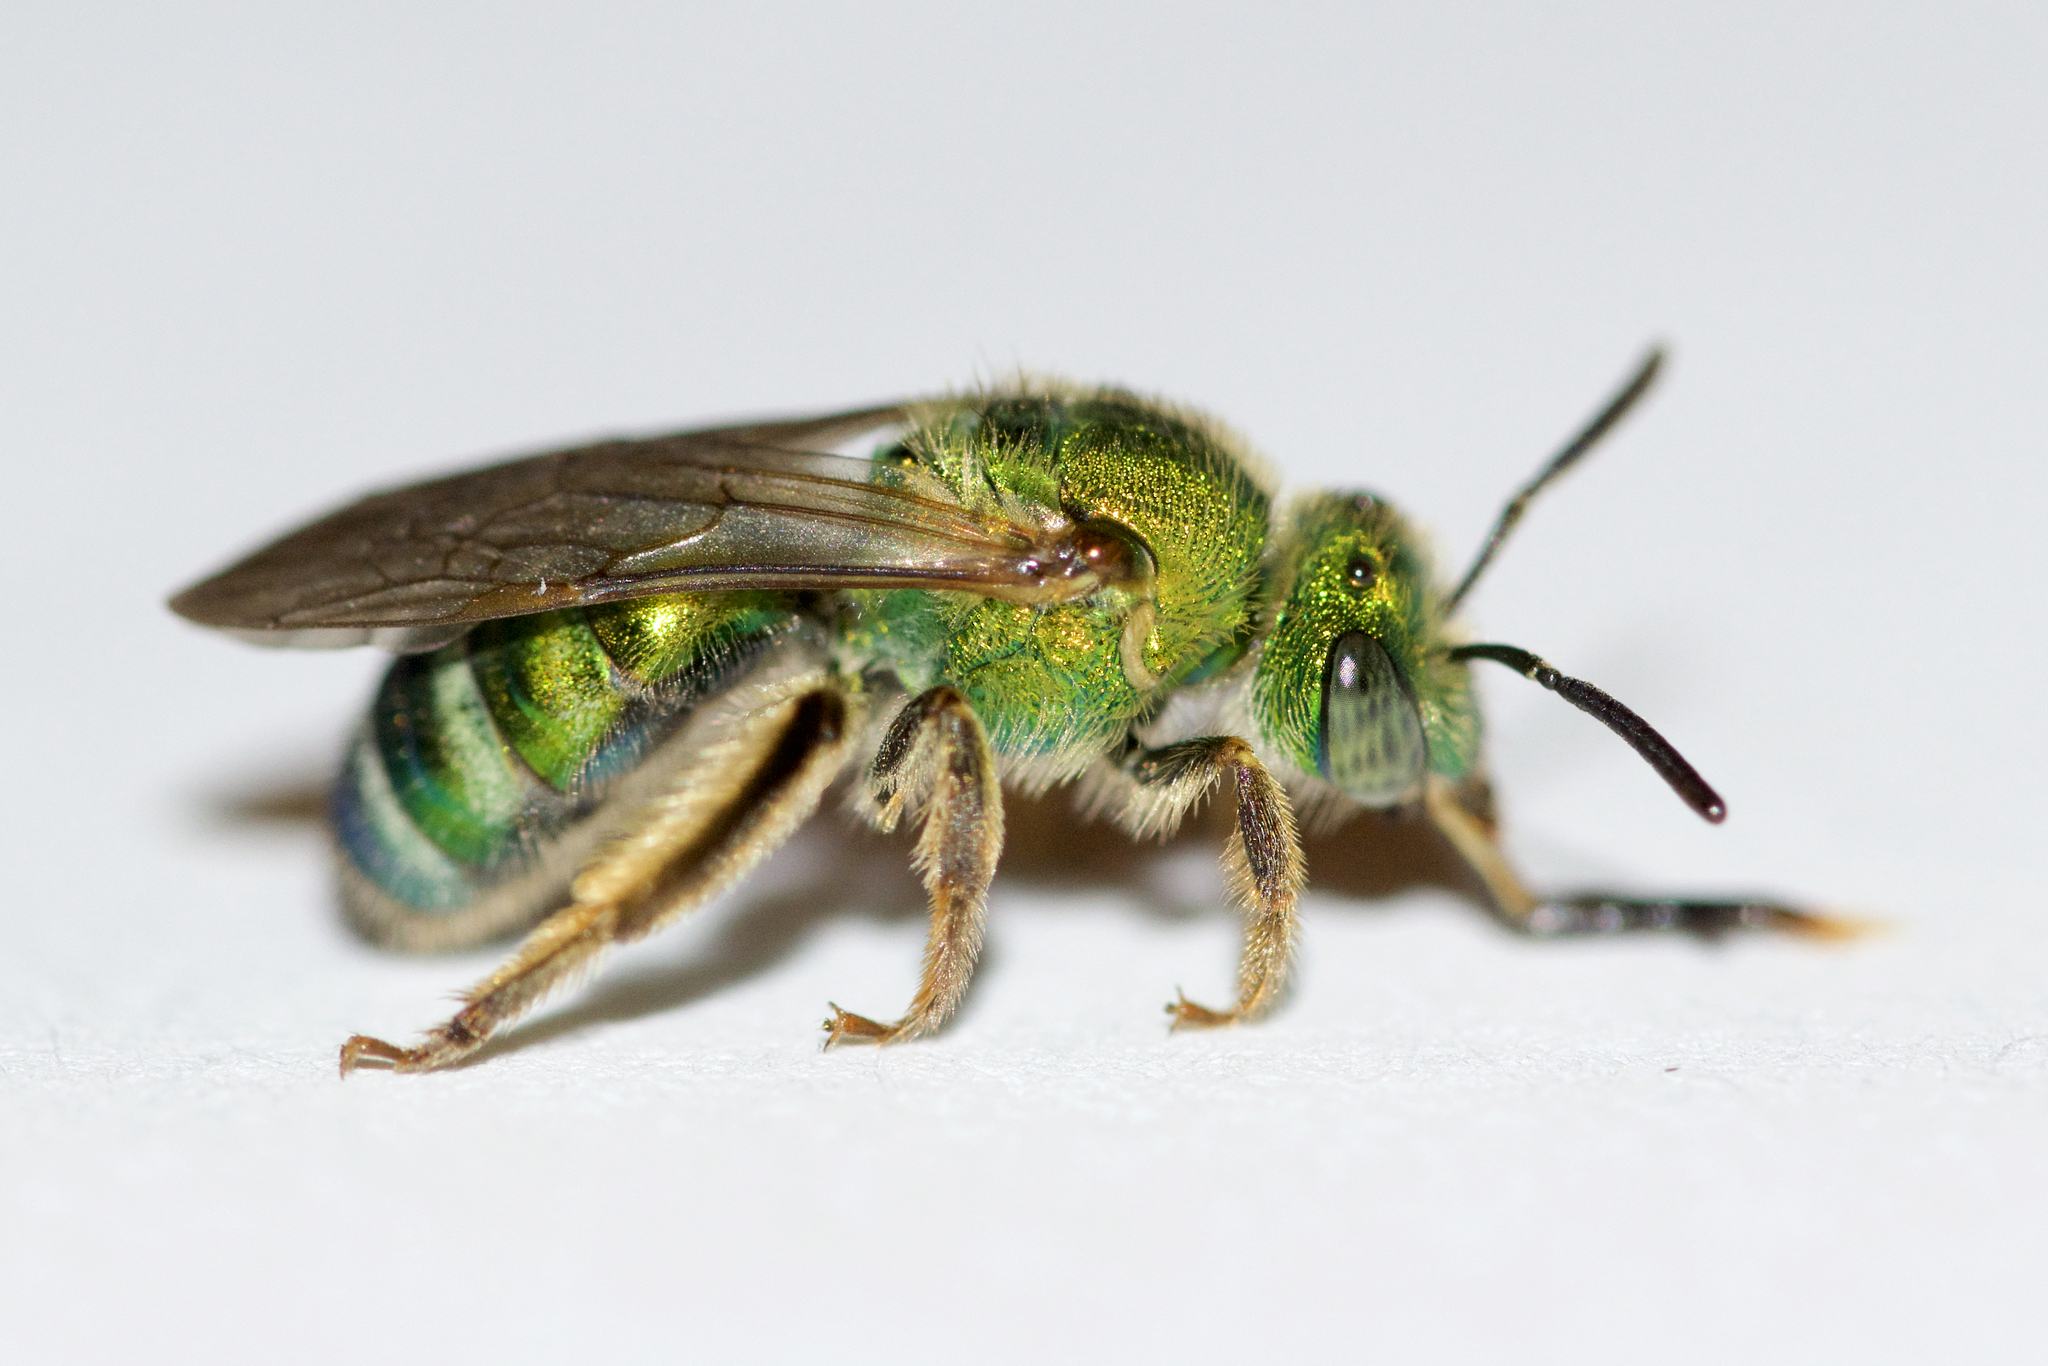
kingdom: Animalia
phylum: Arthropoda
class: Insecta
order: Hymenoptera
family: Halictidae
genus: Agapostemon
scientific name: Agapostemon sericeus
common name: Silky striped sweat bee
